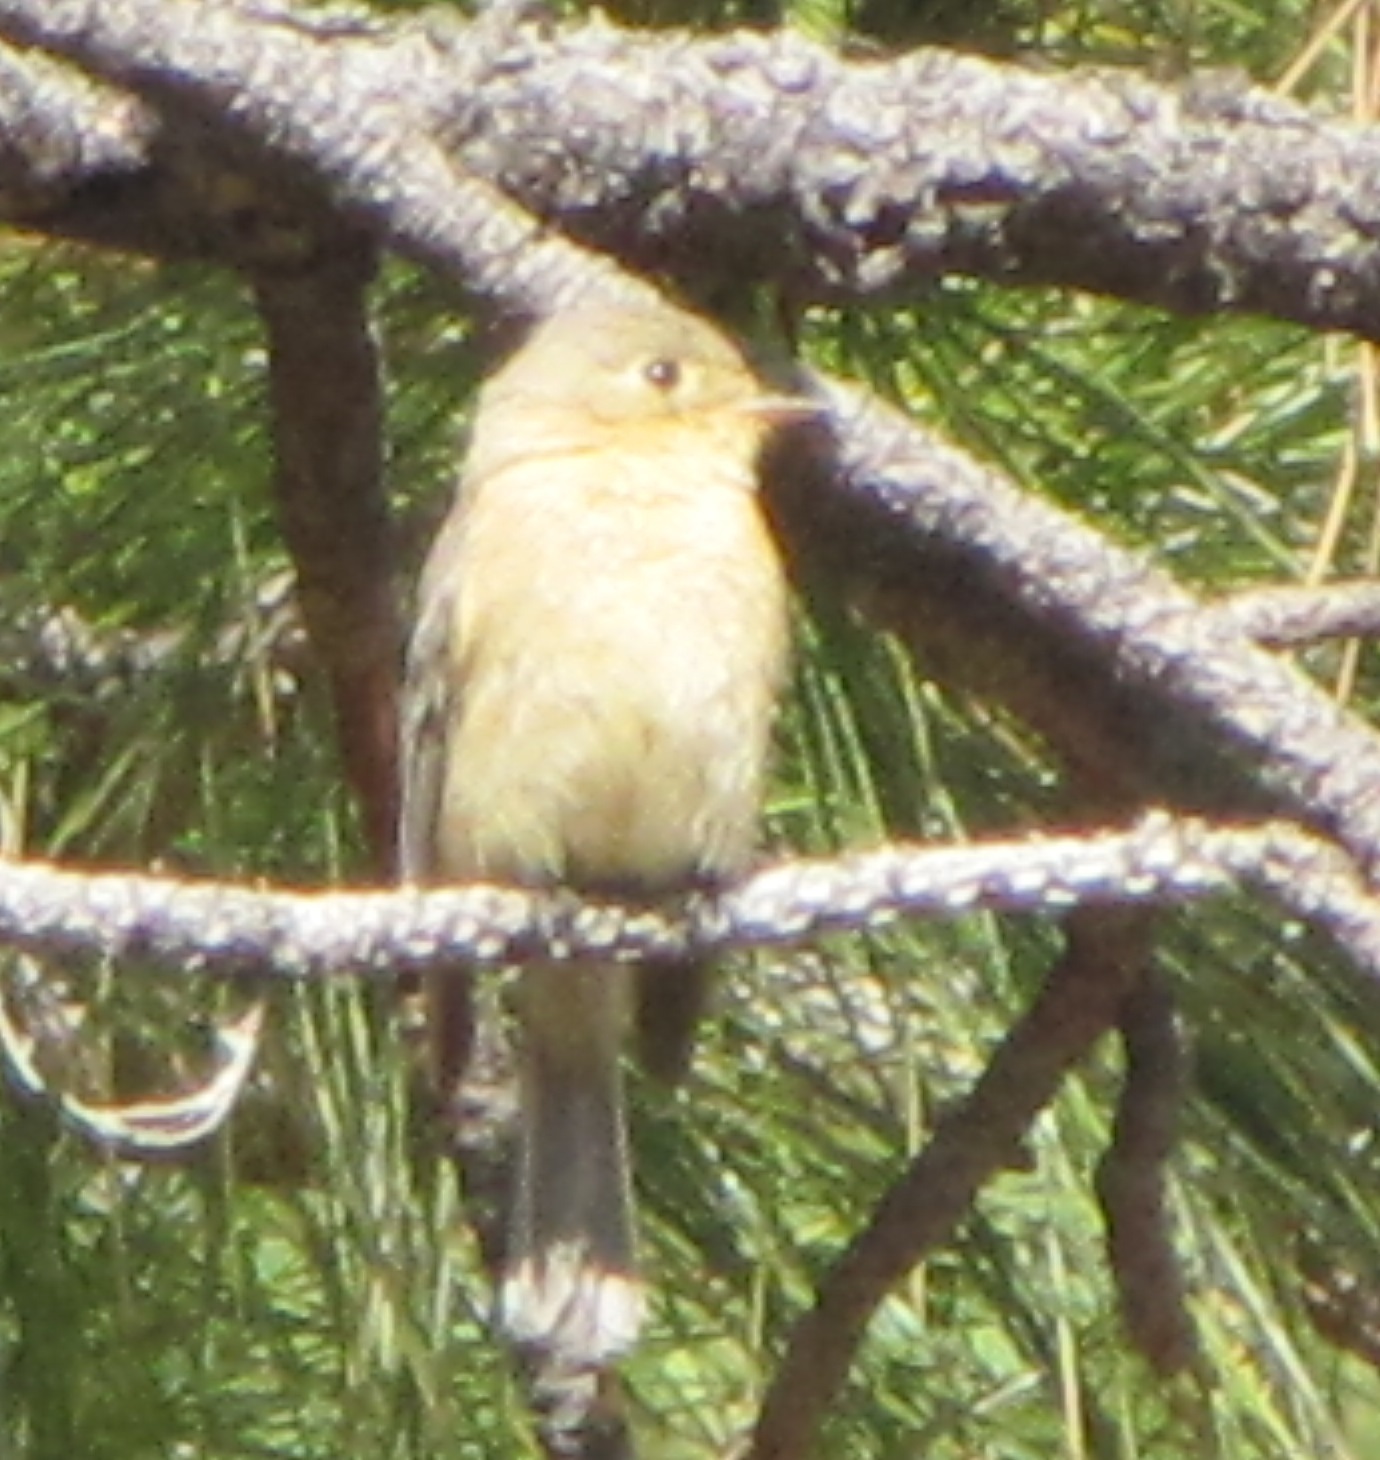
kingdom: Animalia
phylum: Chordata
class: Aves
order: Passeriformes
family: Tyrannidae
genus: Empidonax
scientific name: Empidonax fulvifrons
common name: Buff-breasted flycatcher
